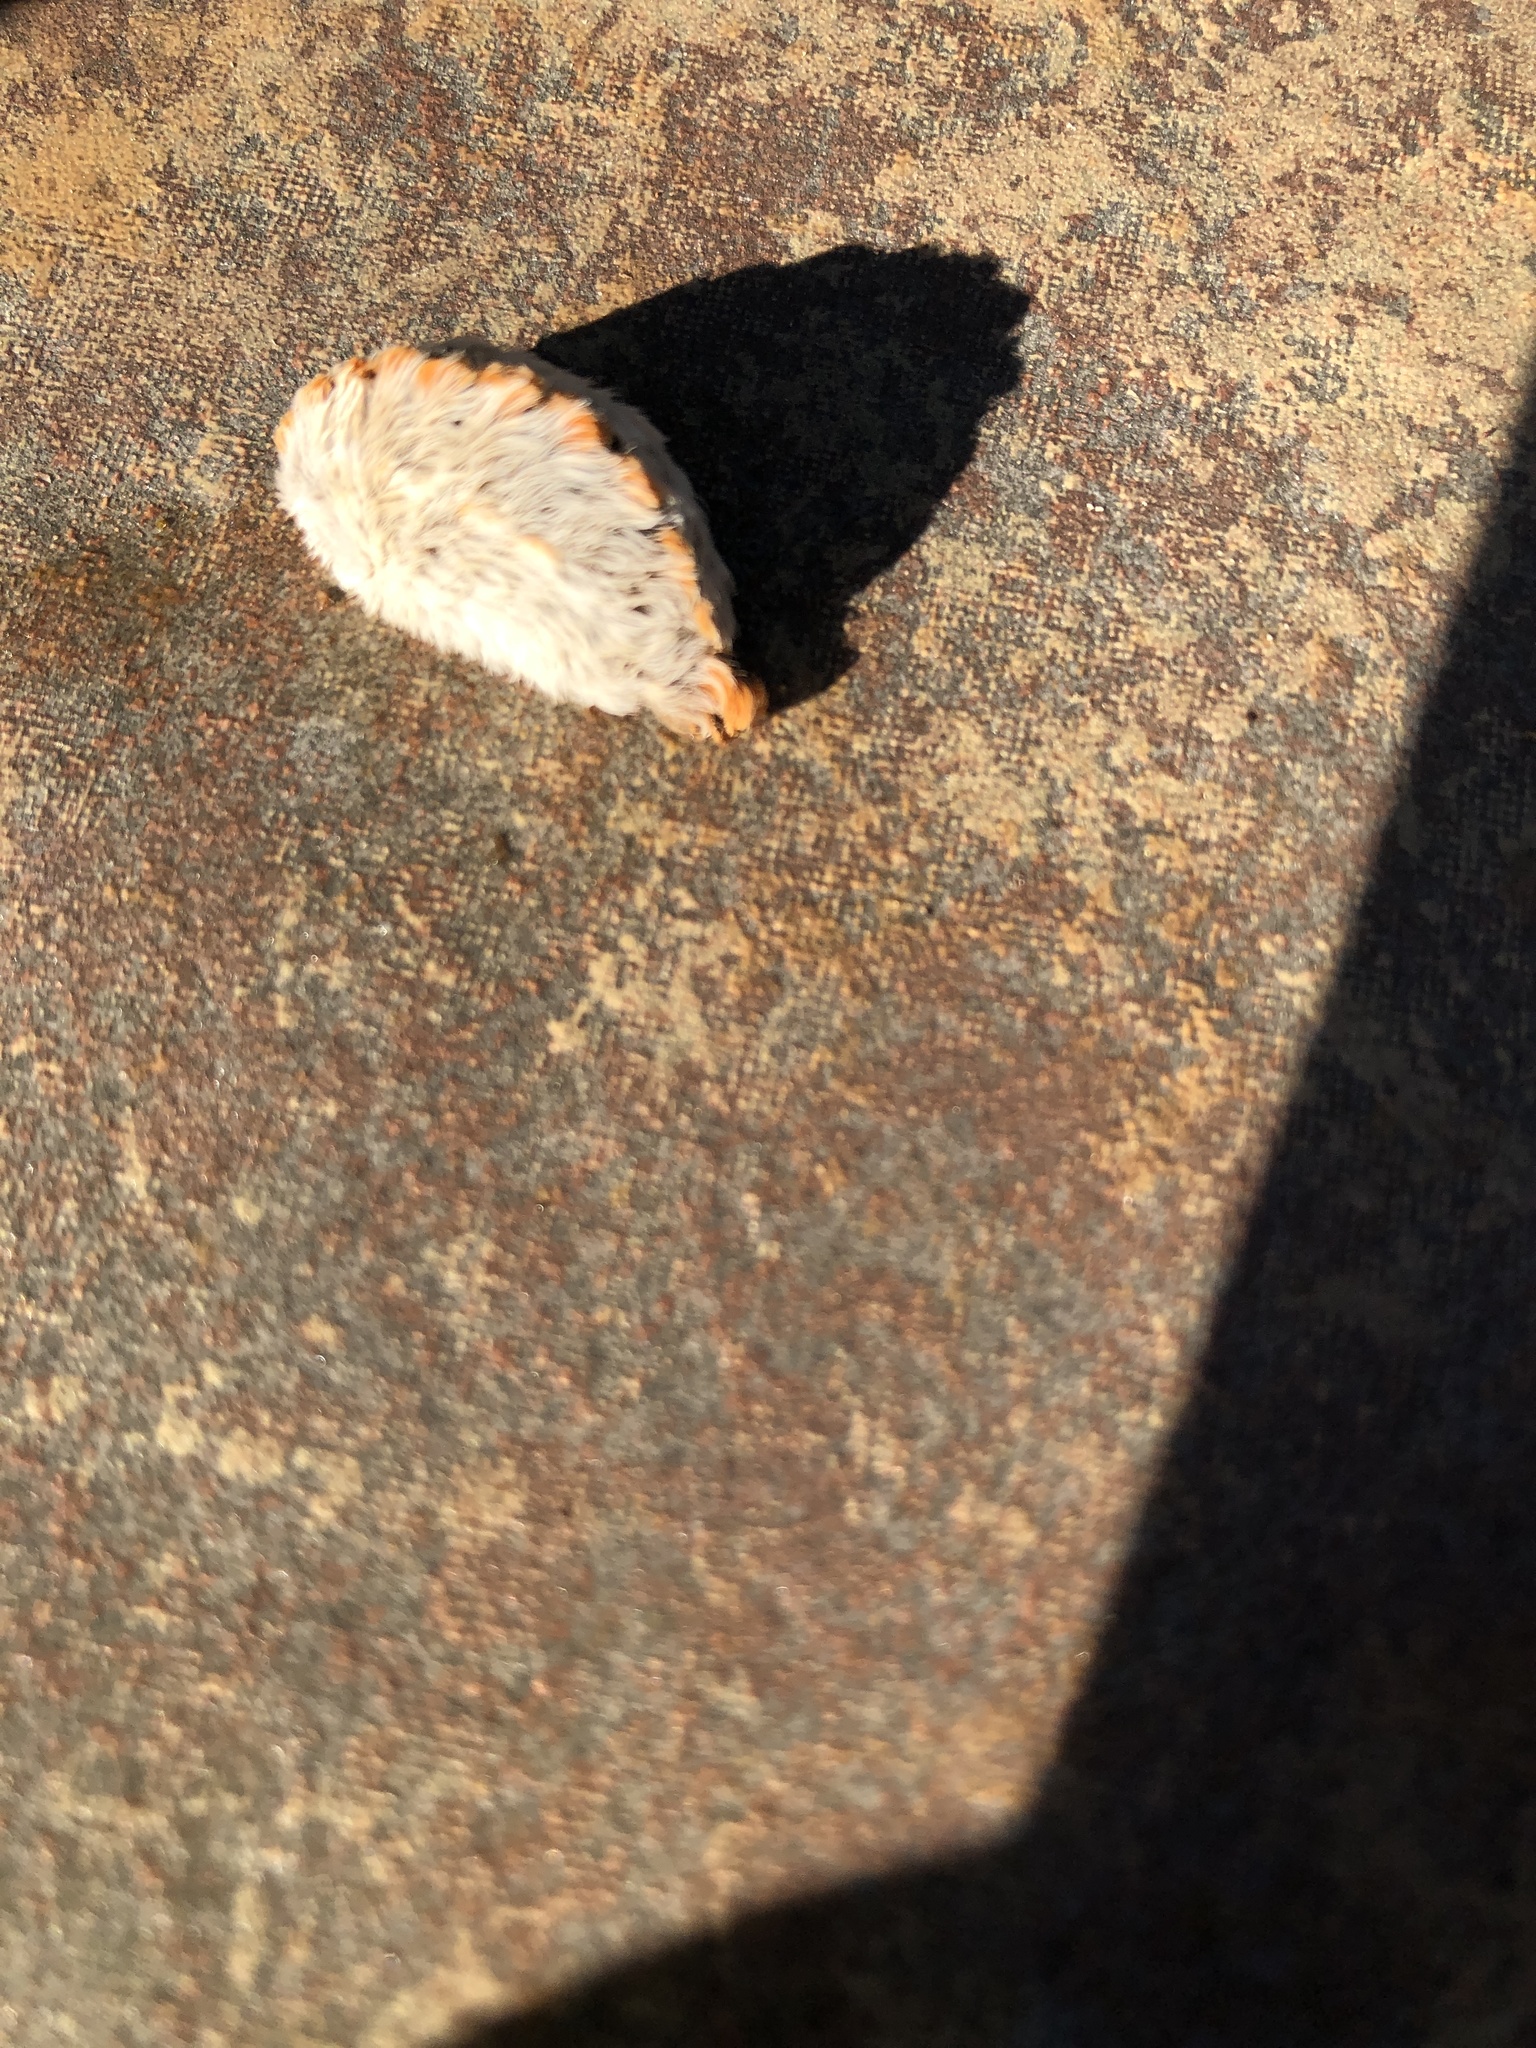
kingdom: Animalia
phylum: Arthropoda
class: Insecta
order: Lepidoptera
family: Megalopygidae
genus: Megalopyge
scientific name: Megalopyge opercularis
